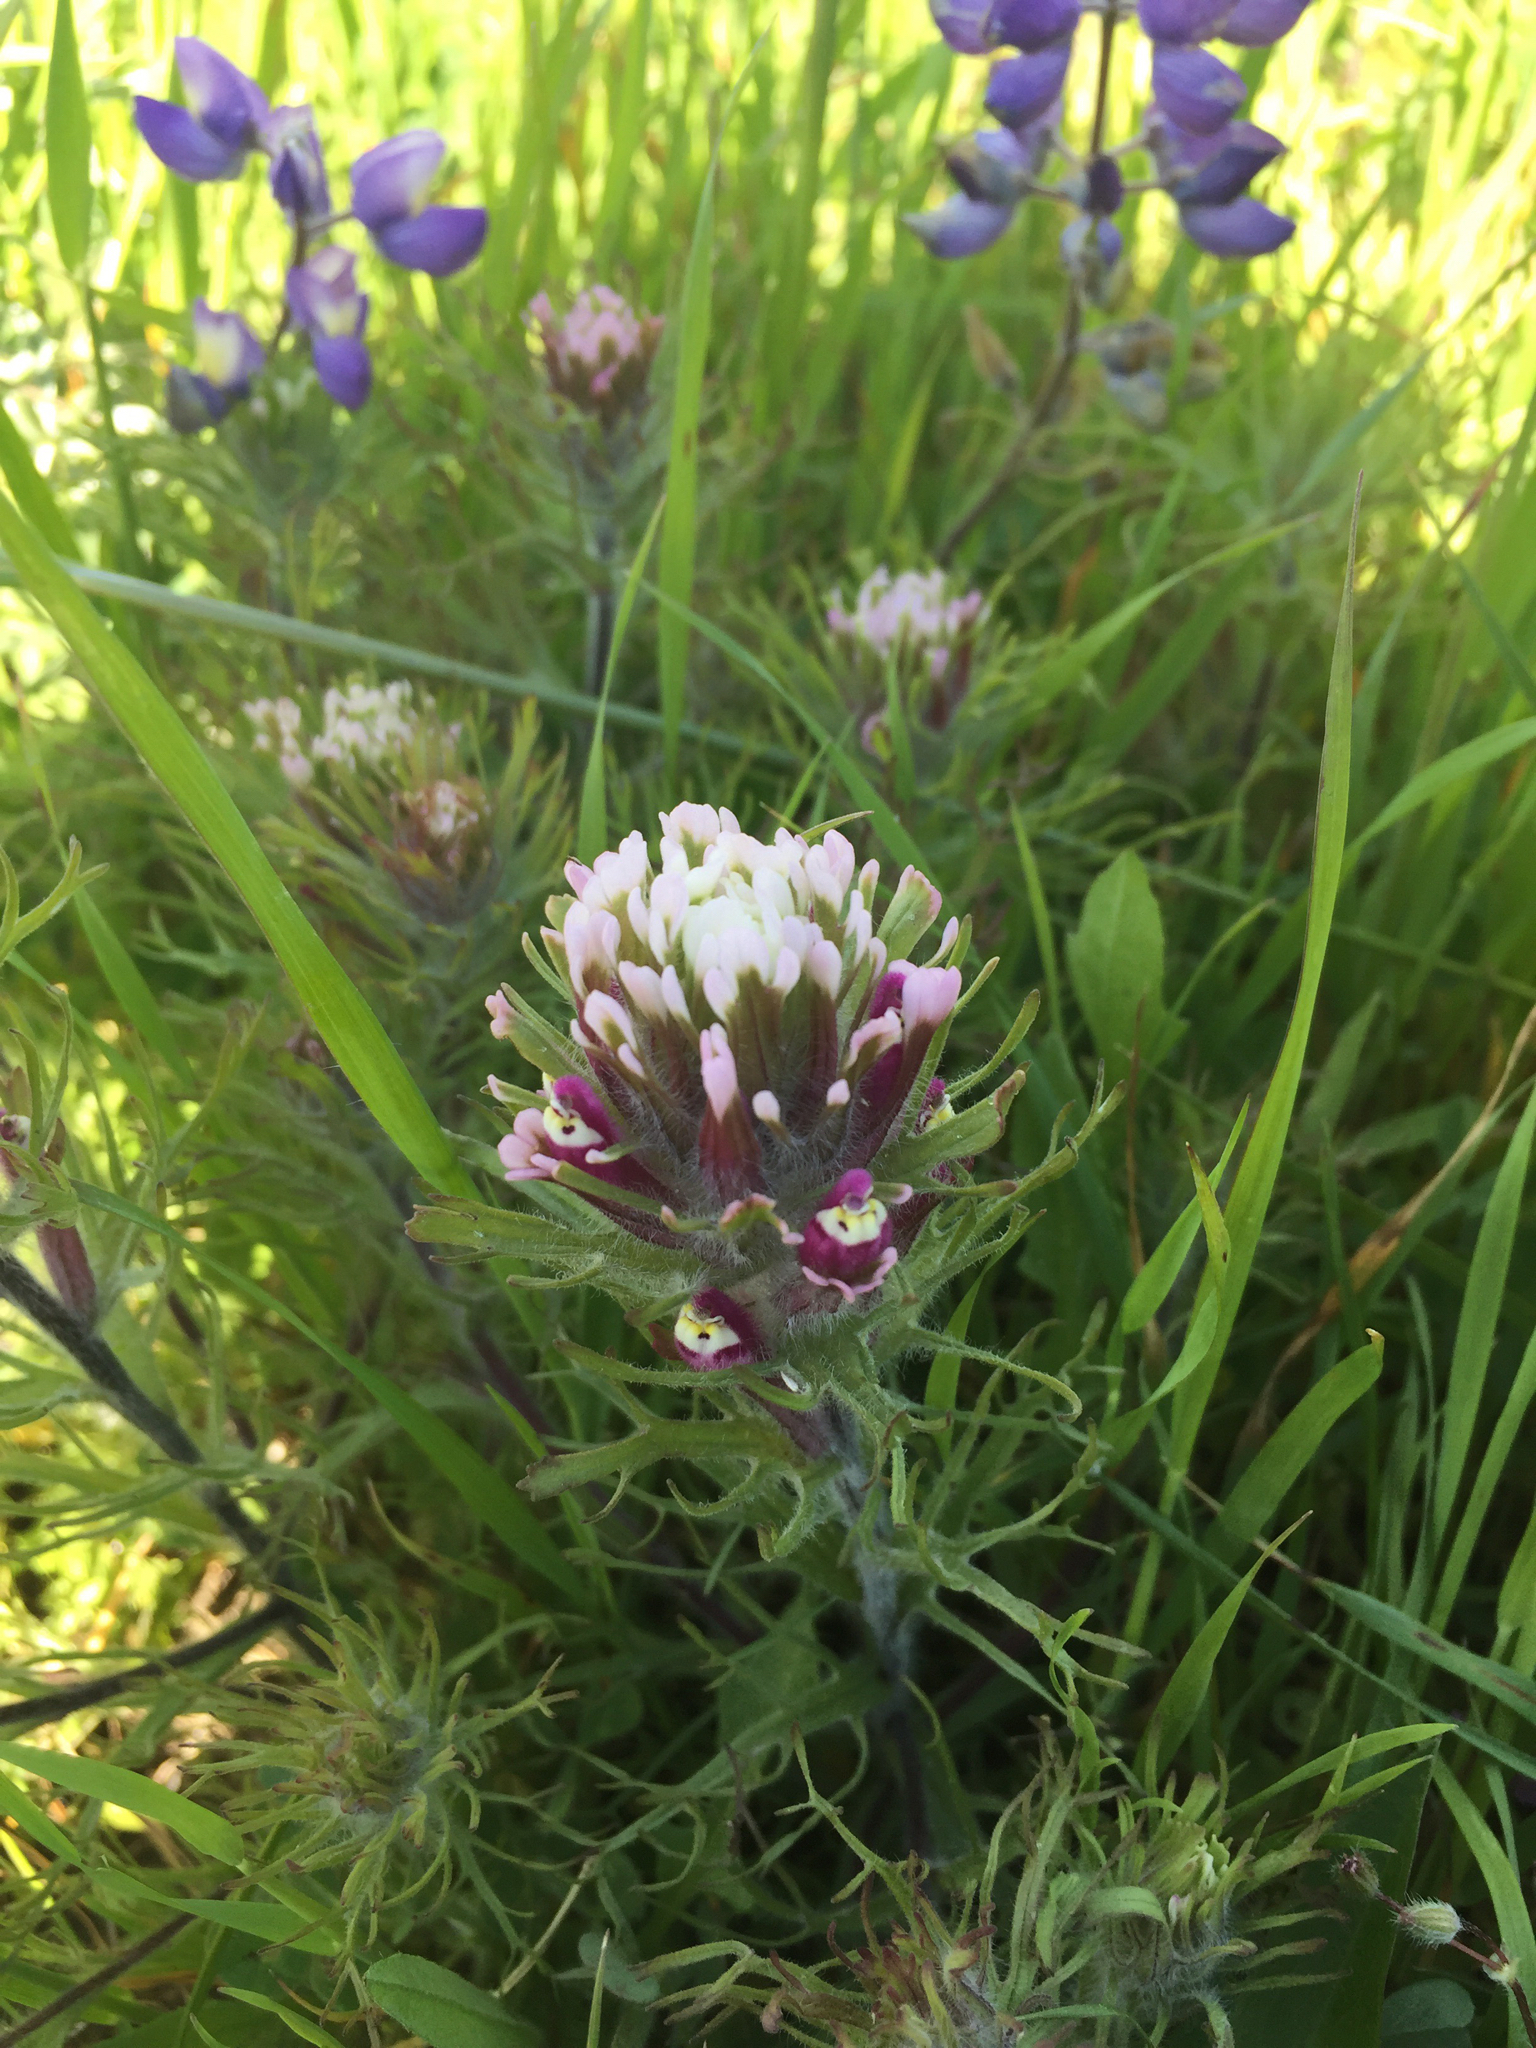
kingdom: Plantae
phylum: Tracheophyta
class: Magnoliopsida
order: Lamiales
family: Orobanchaceae
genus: Castilleja
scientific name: Castilleja exserta
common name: Purple owl-clover
